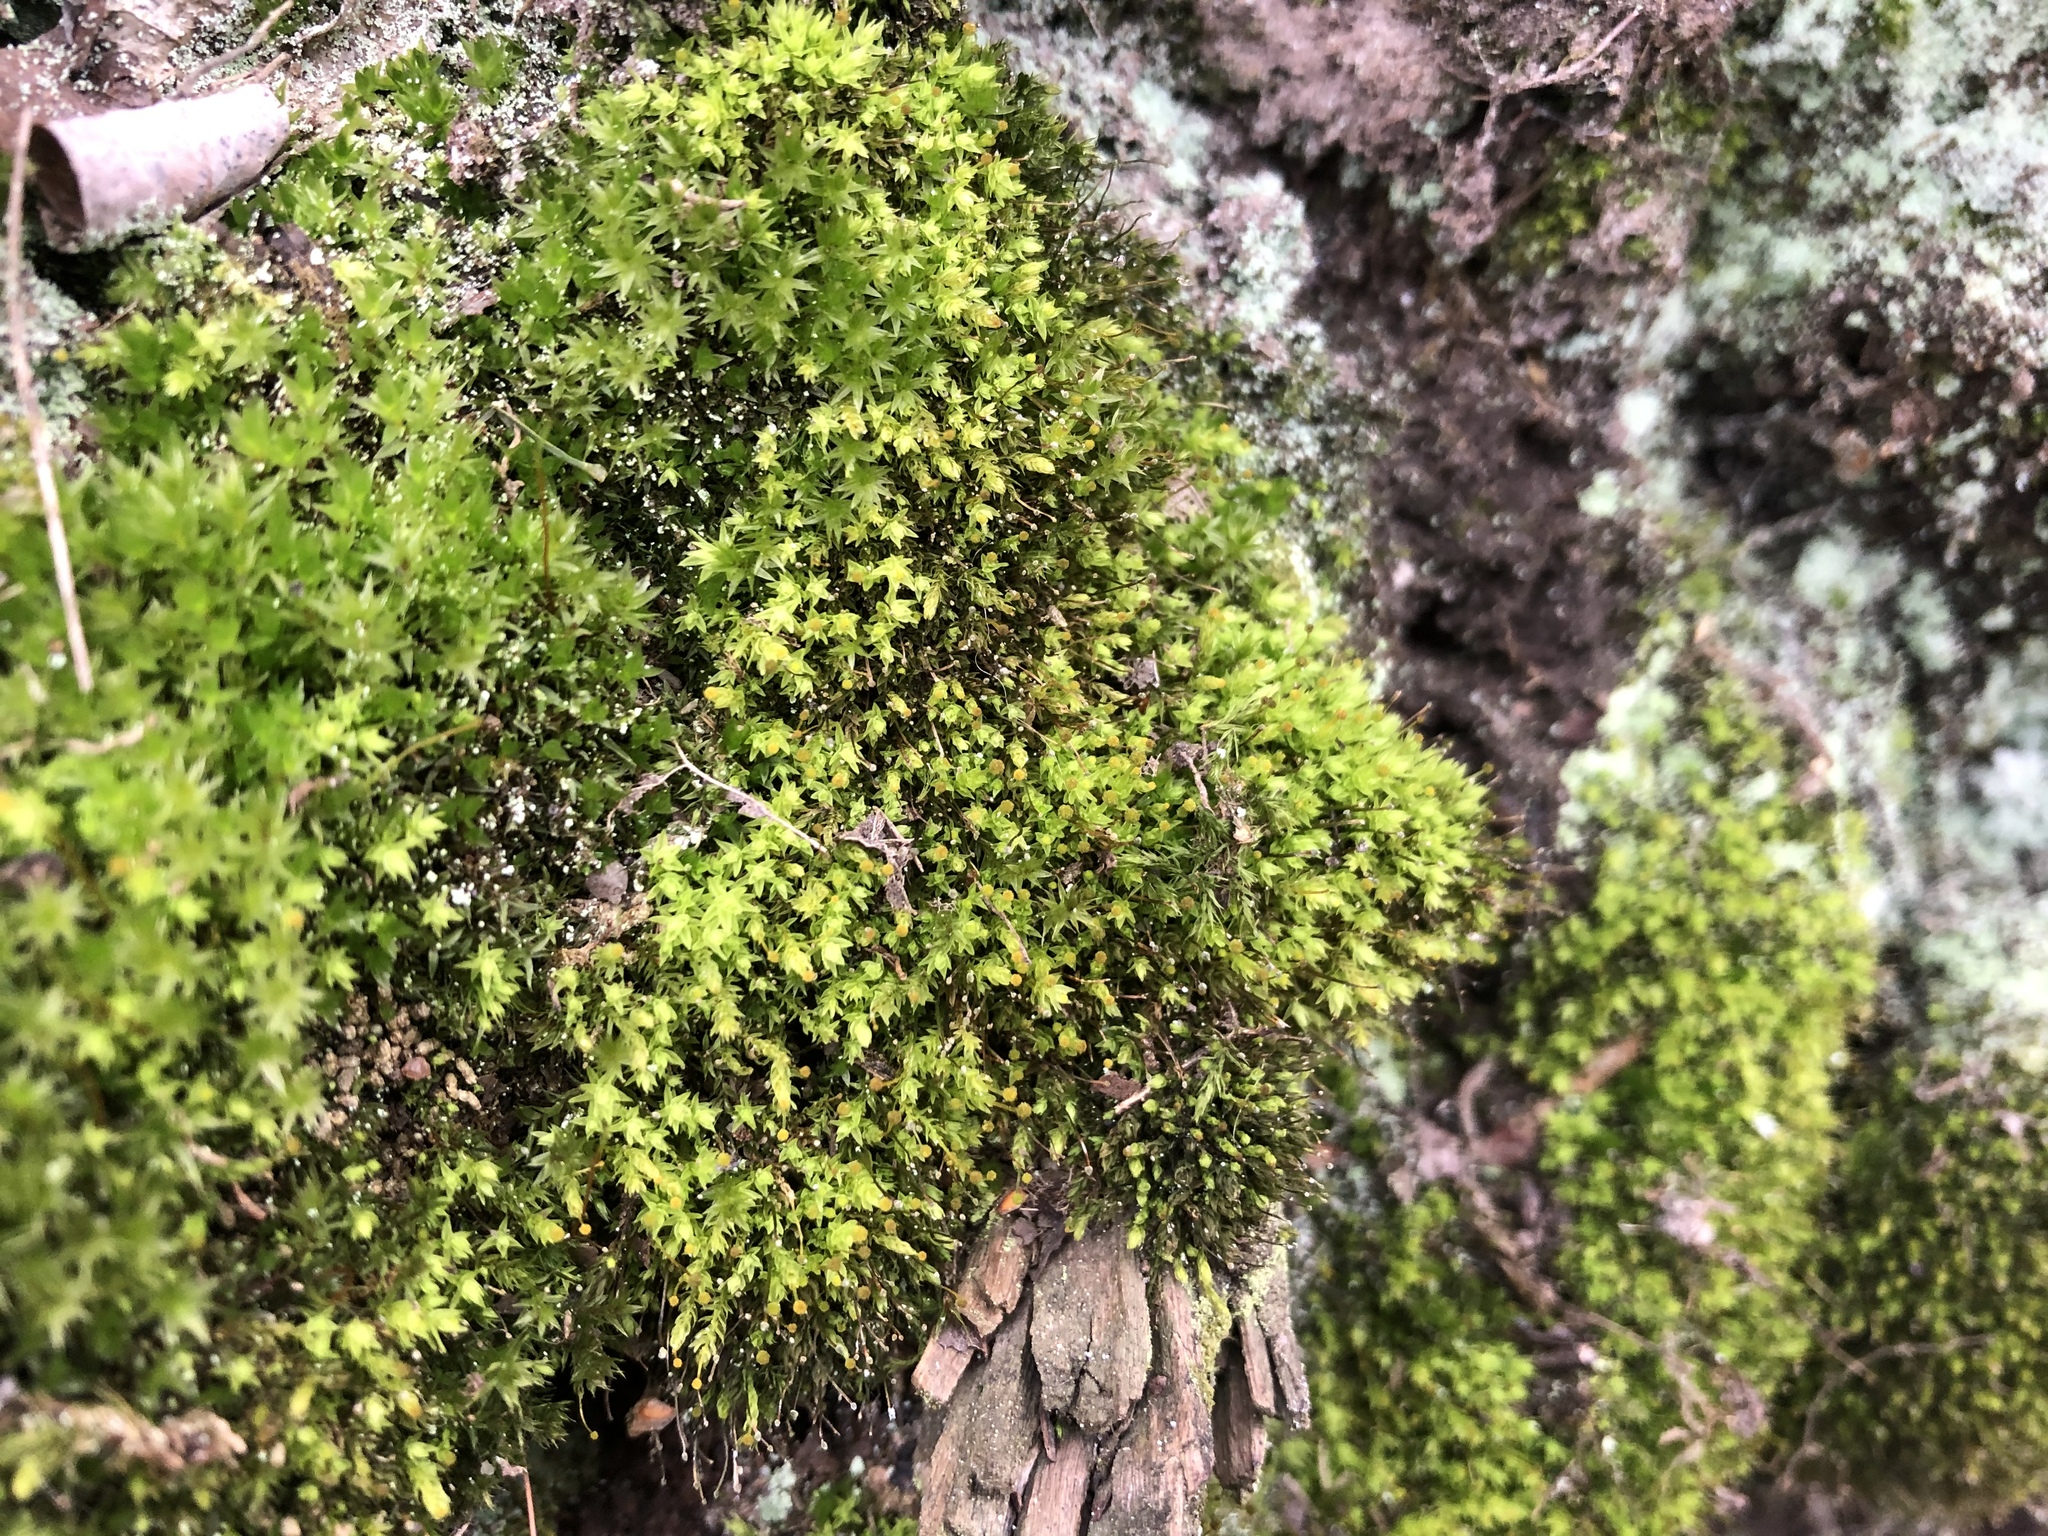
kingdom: Plantae
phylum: Bryophyta
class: Bryopsida
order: Aulacomniales
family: Aulacomniaceae
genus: Aulacomnium
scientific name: Aulacomnium androgynum
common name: Little groove moss
